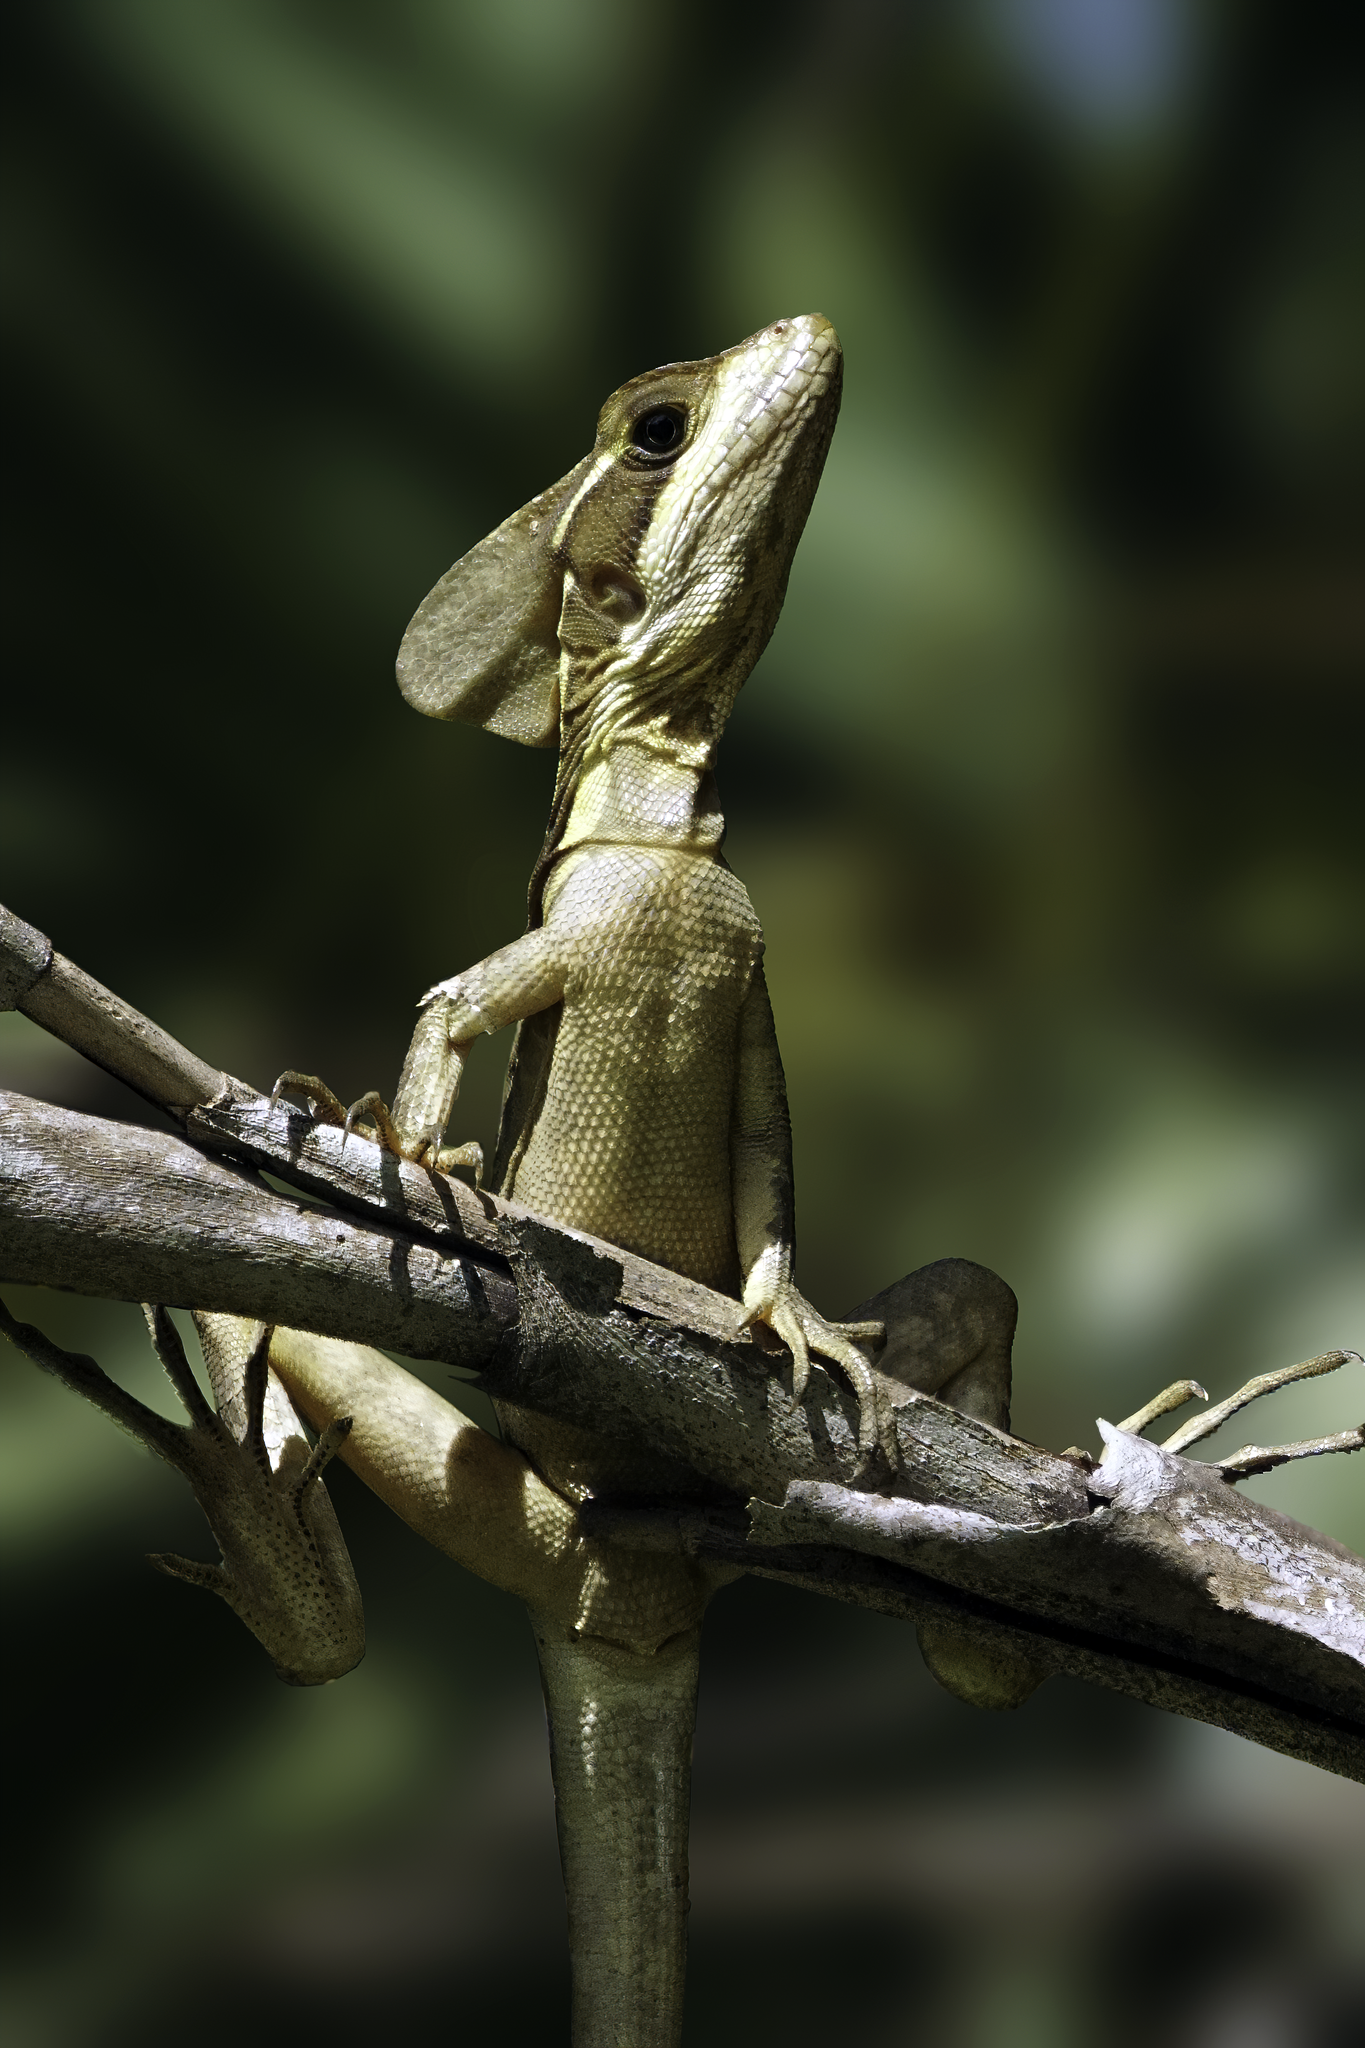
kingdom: Animalia
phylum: Chordata
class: Squamata
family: Corytophanidae
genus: Basiliscus
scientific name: Basiliscus vittatus
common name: Brown basilisk
